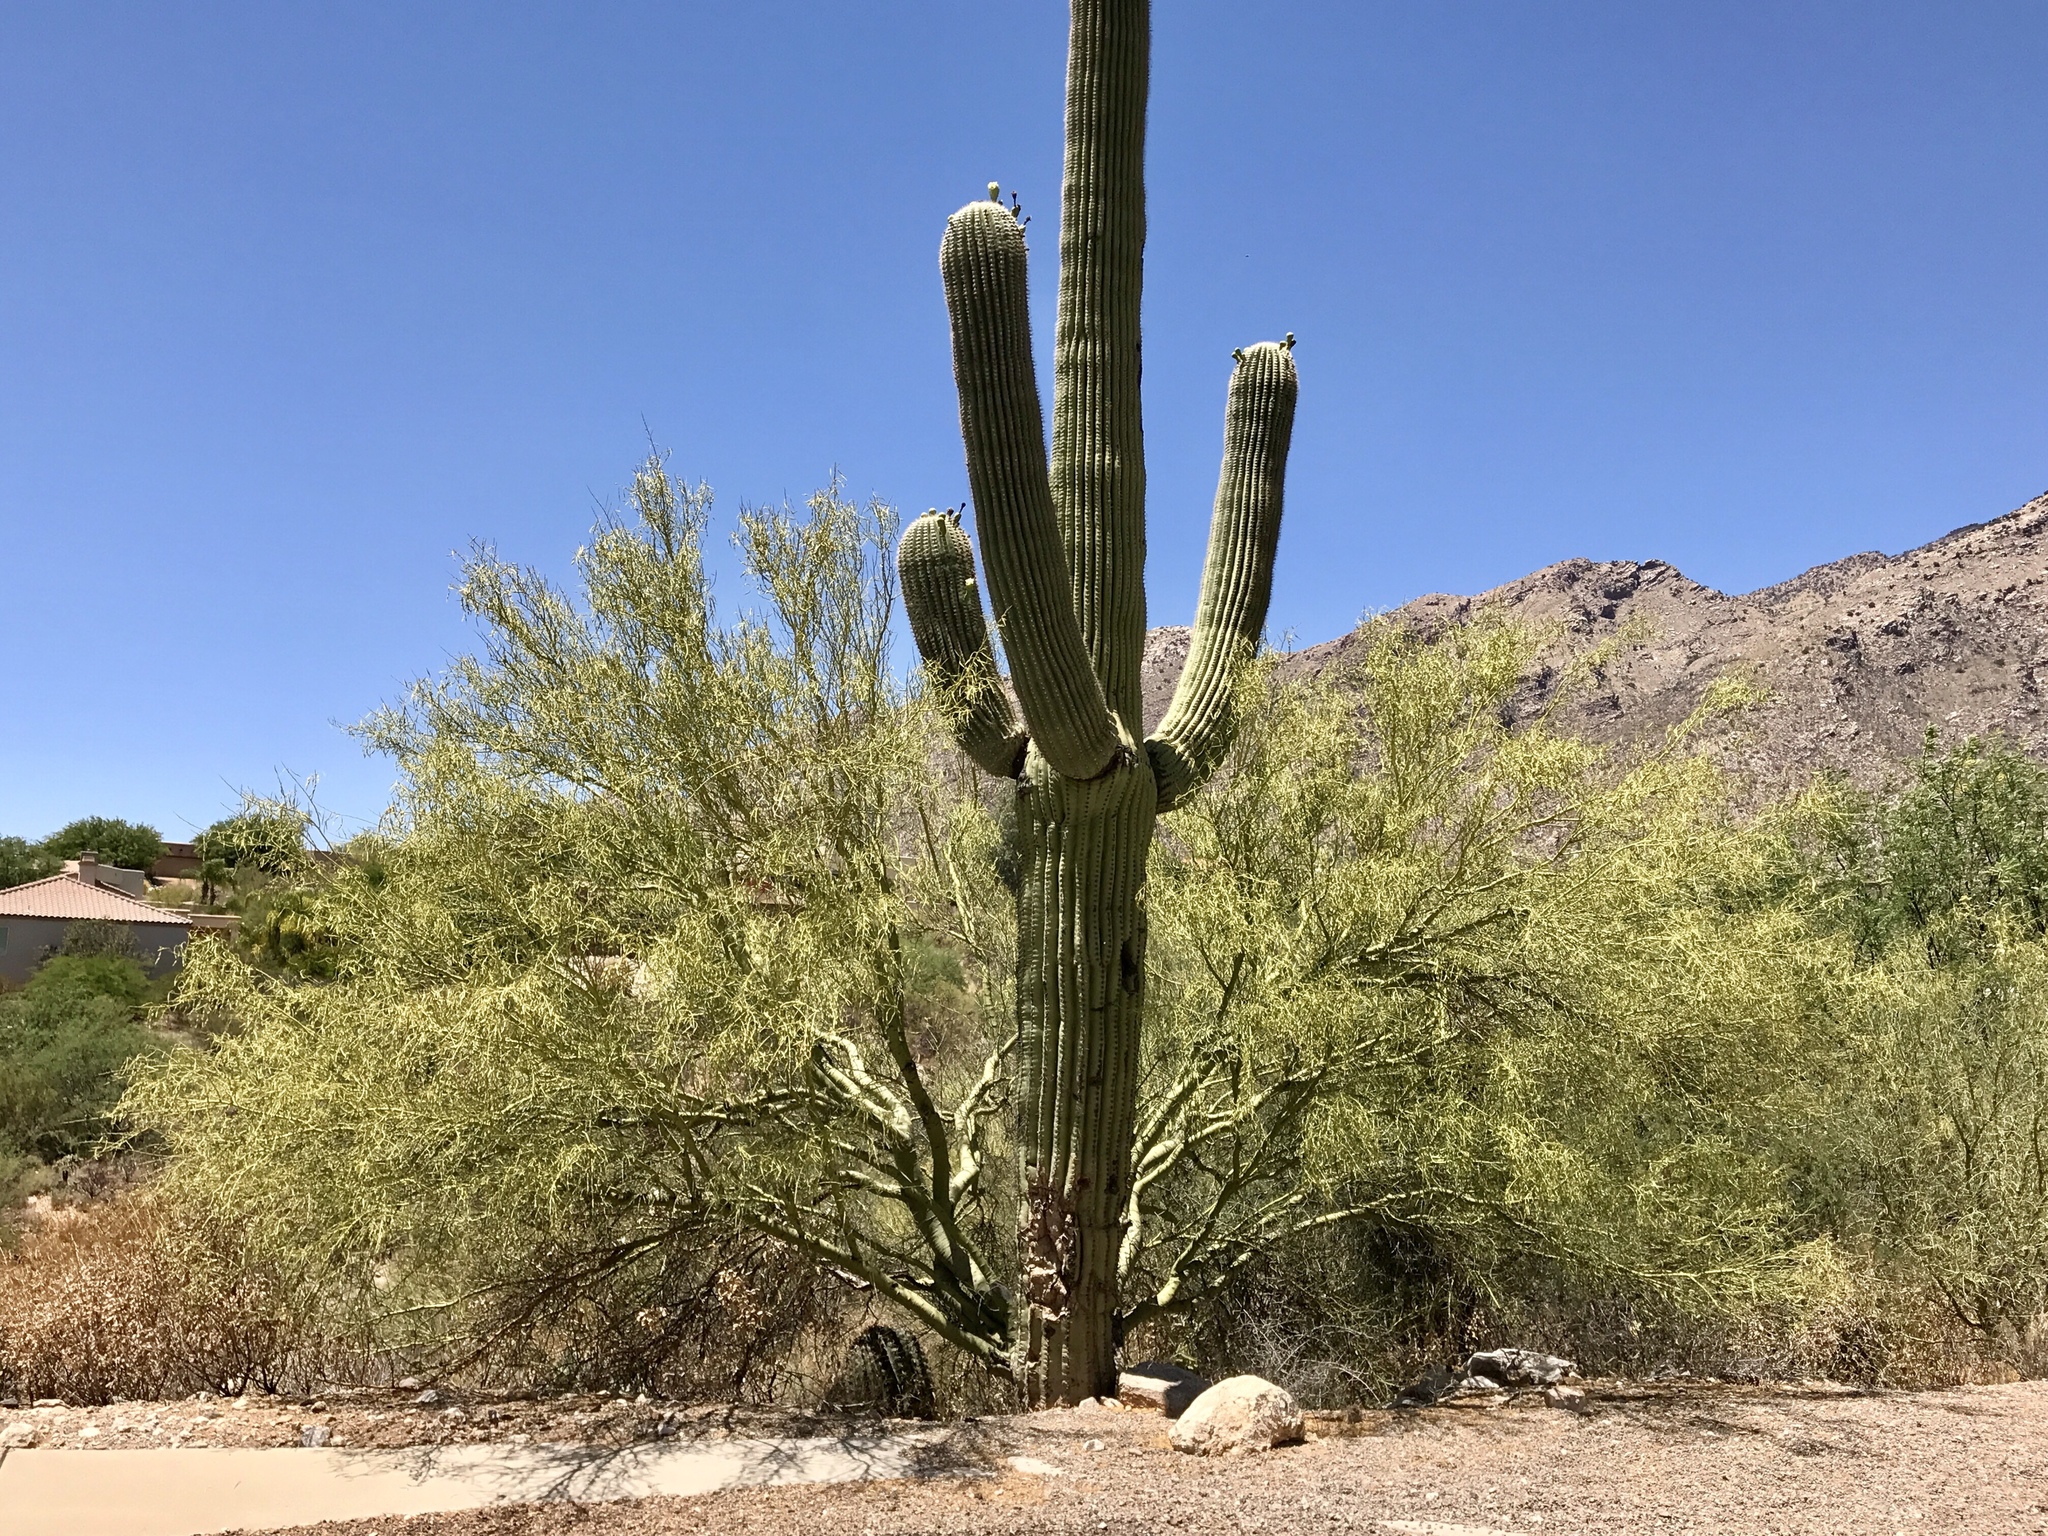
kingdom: Plantae
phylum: Tracheophyta
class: Magnoliopsida
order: Caryophyllales
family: Cactaceae
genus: Carnegiea
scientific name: Carnegiea gigantea
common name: Saguaro
